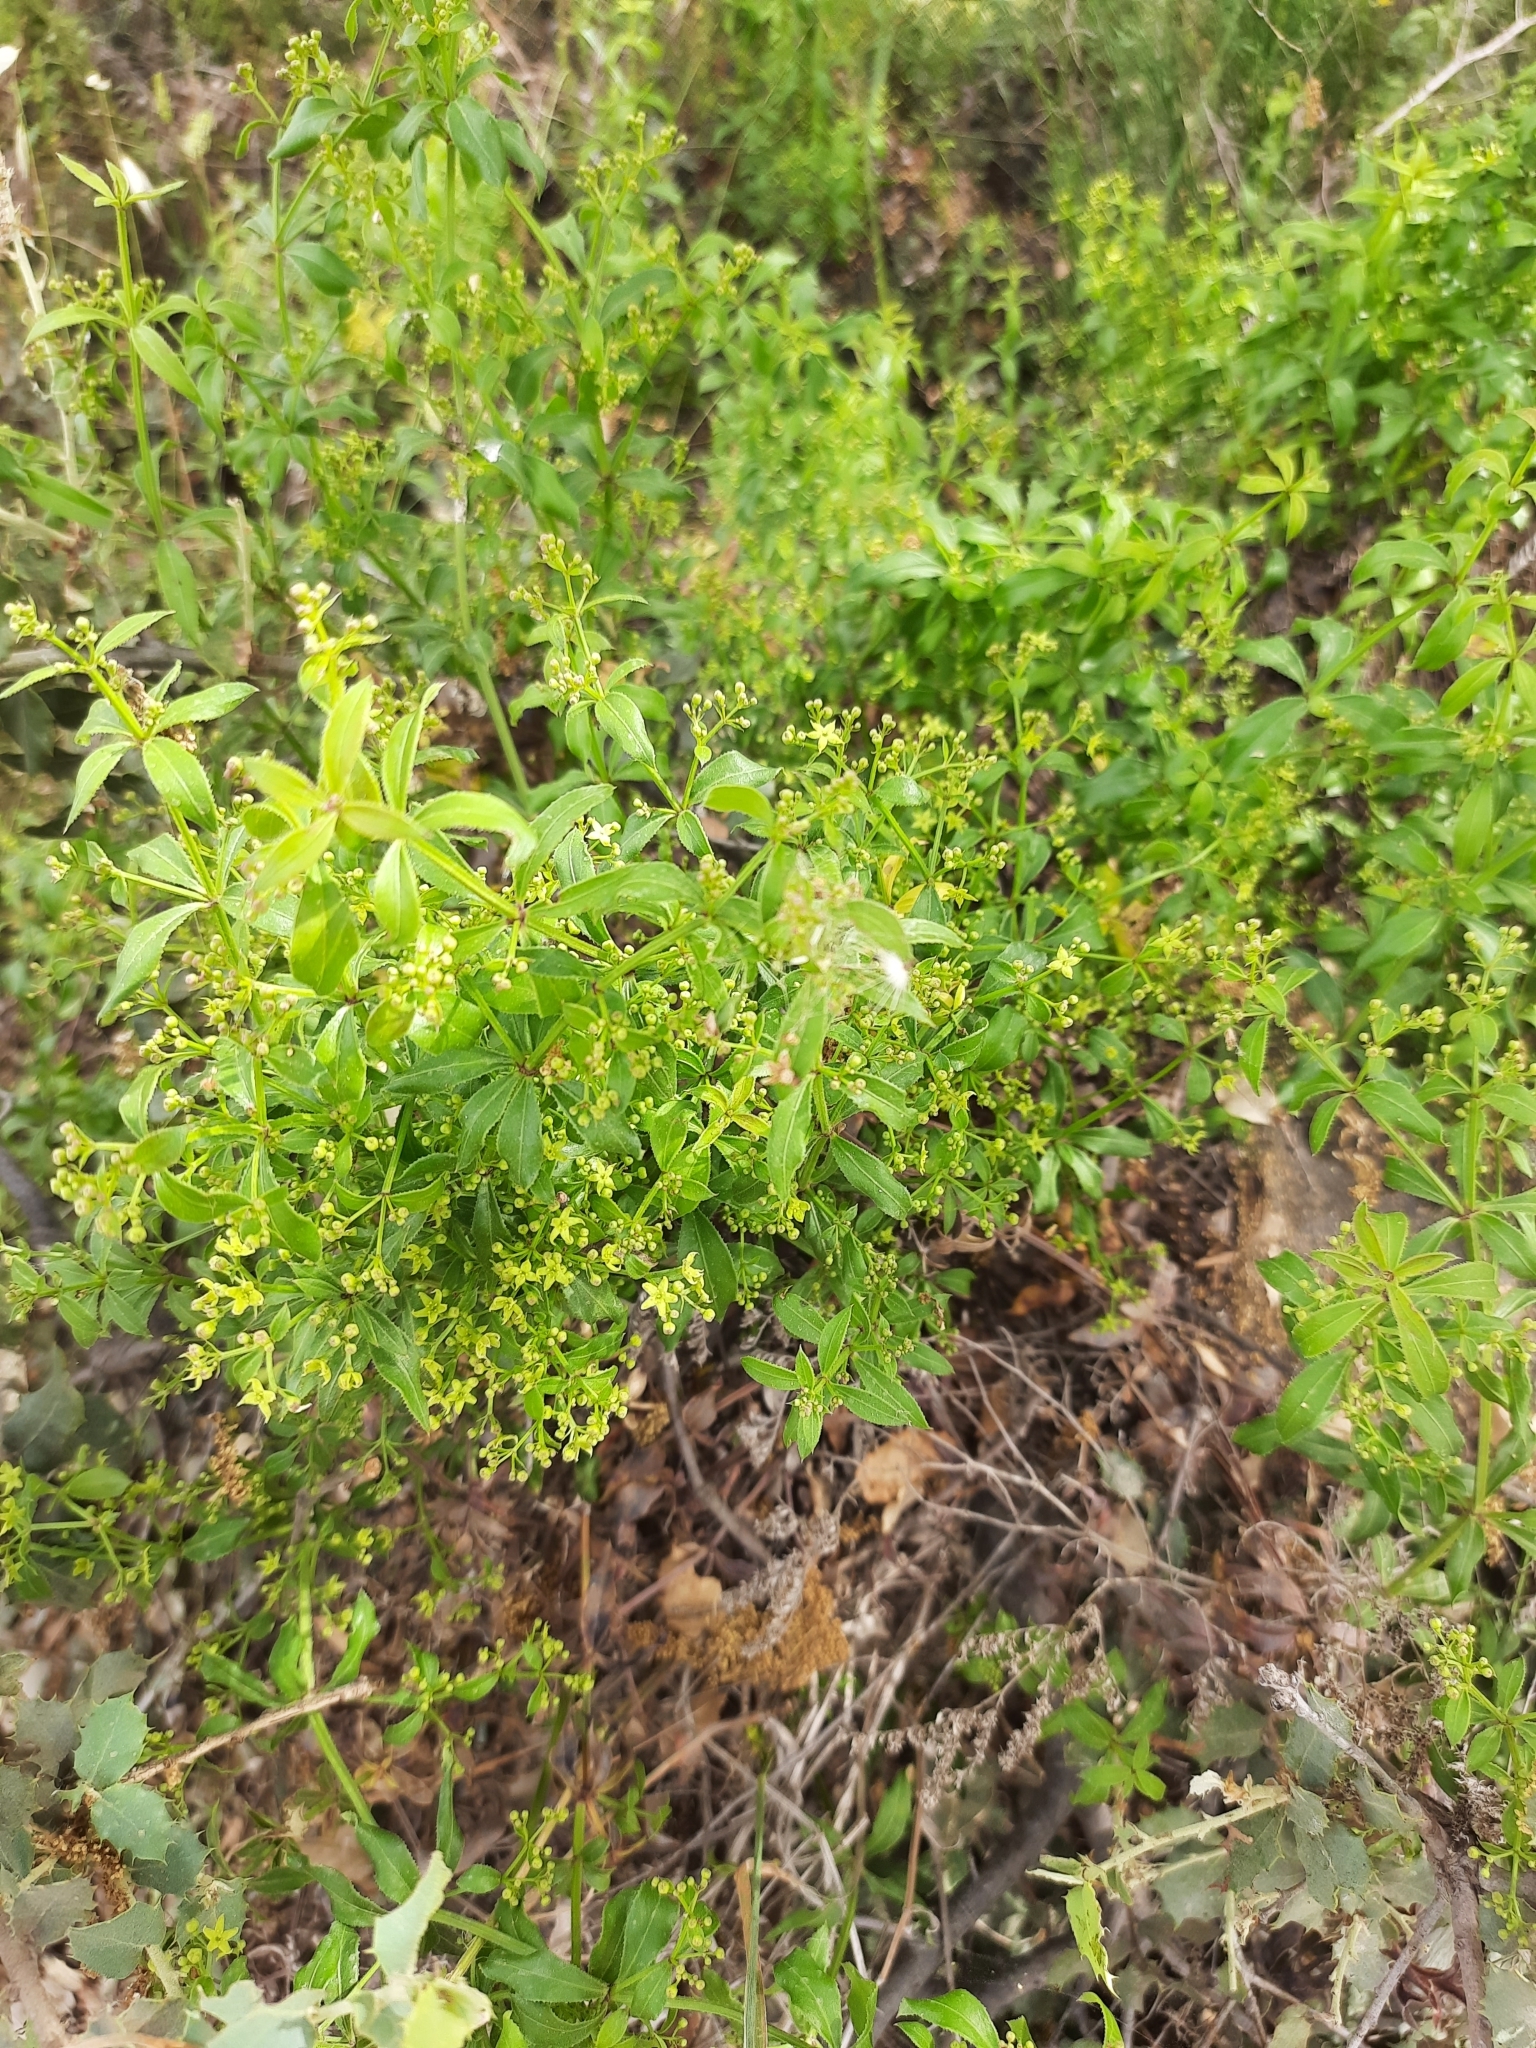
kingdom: Plantae
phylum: Tracheophyta
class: Magnoliopsida
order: Gentianales
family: Rubiaceae
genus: Rubia
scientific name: Rubia peregrina
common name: Wild madder
